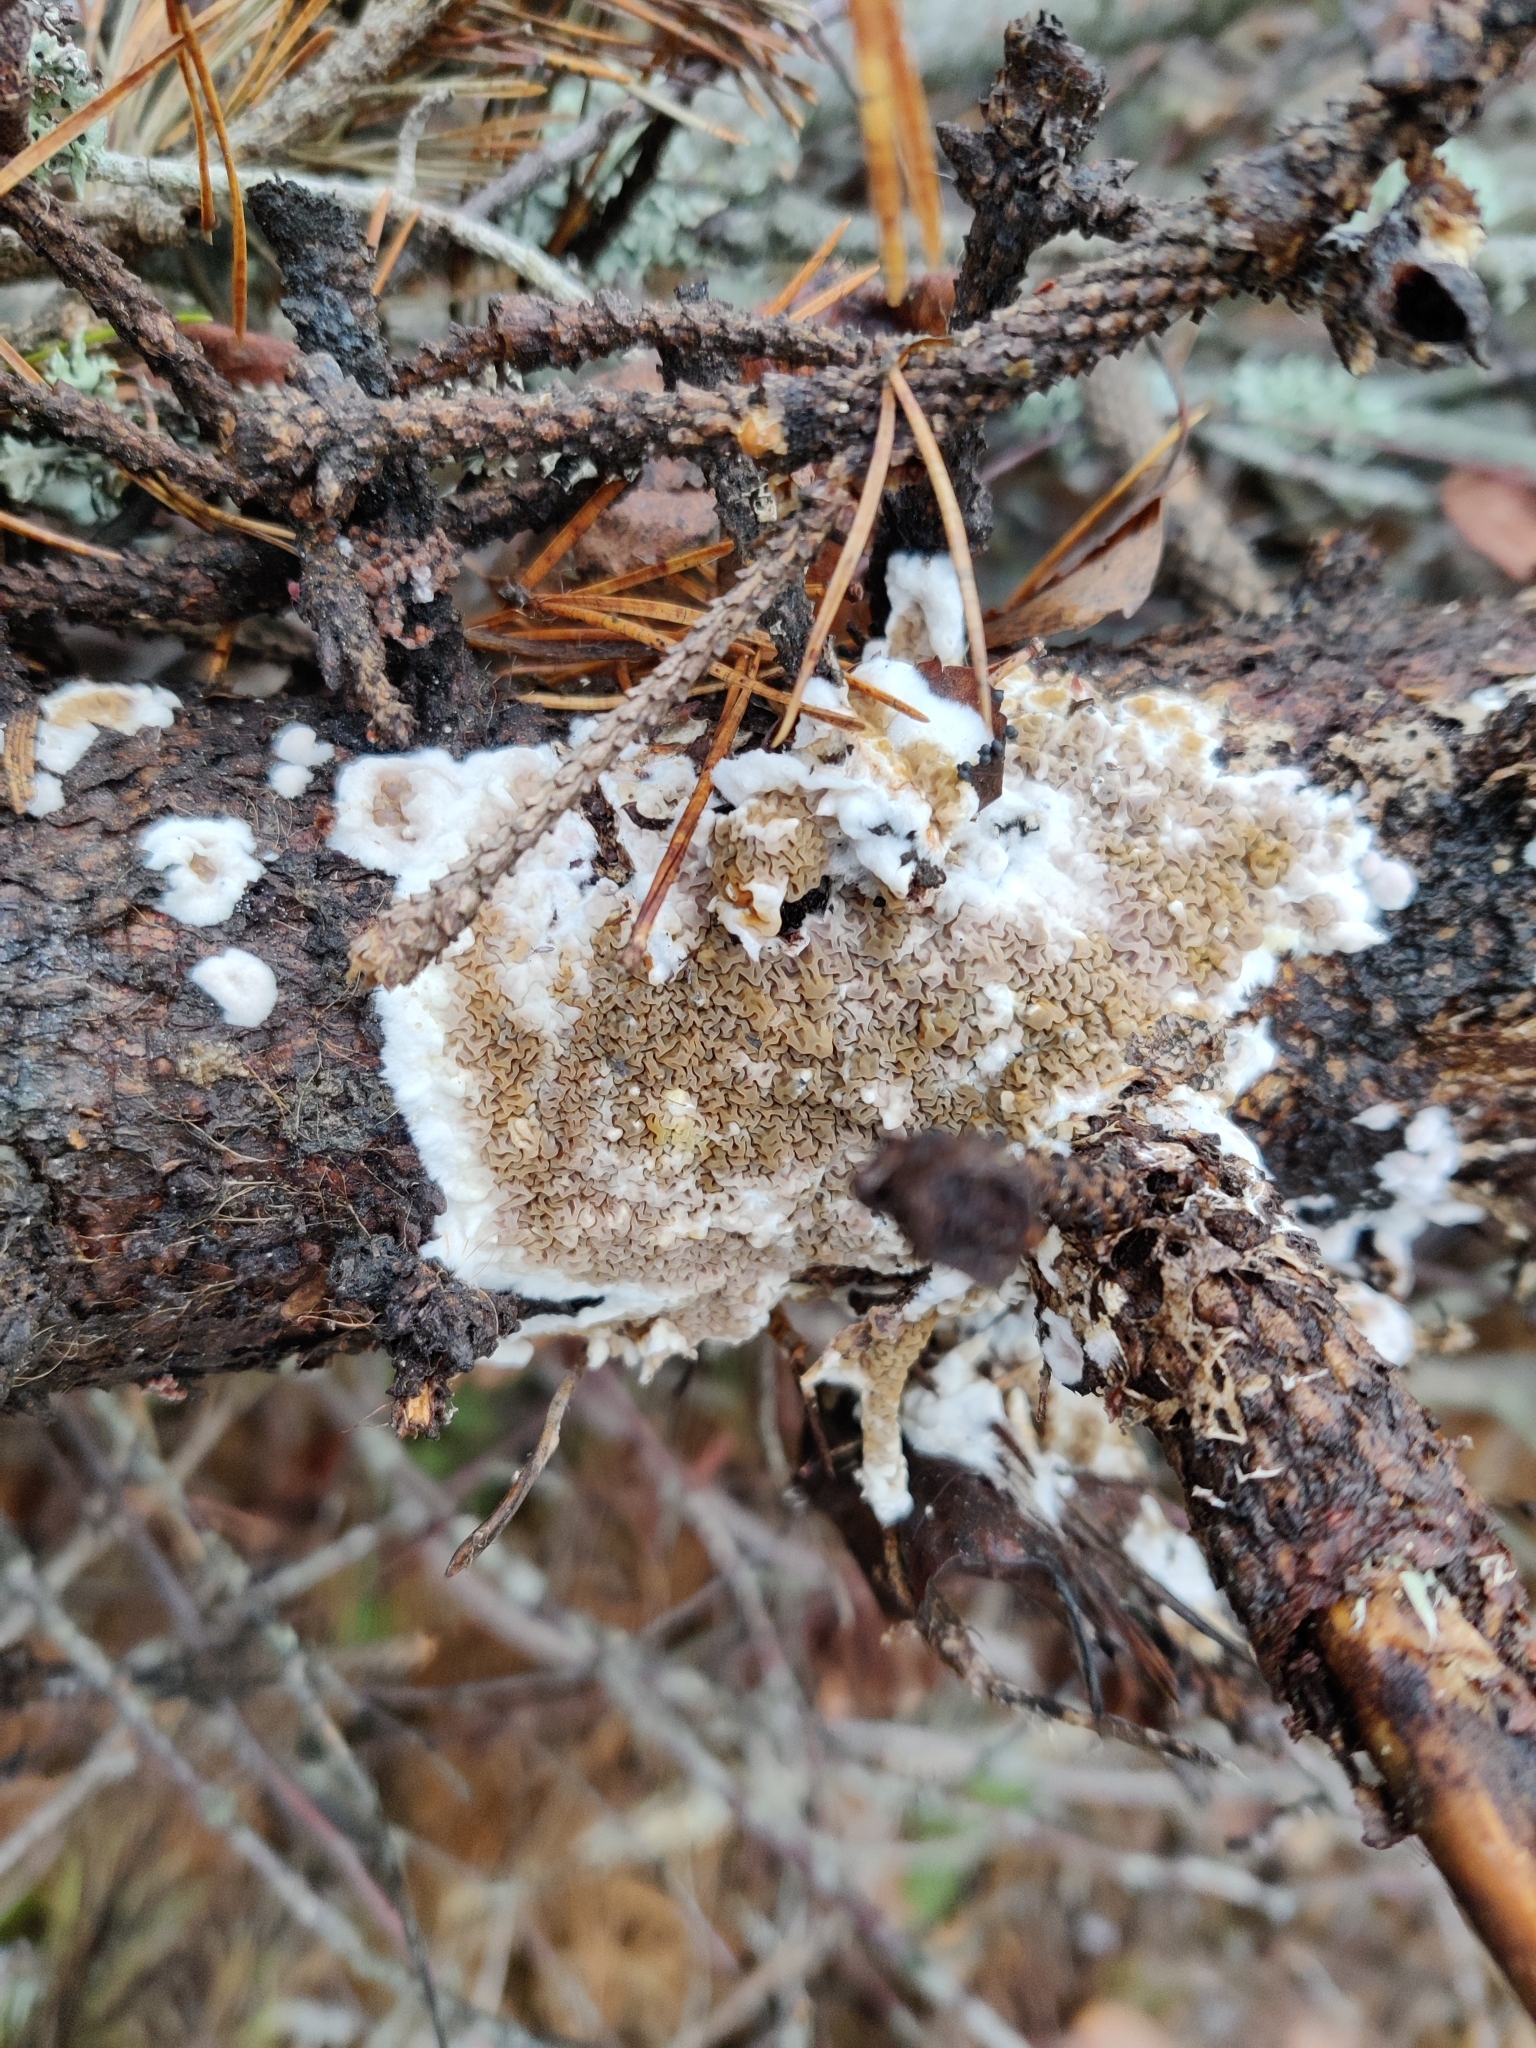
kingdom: Fungi
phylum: Basidiomycota
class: Agaricomycetes
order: Boletales
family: Serpulaceae
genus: Serpula
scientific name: Serpula himantioides
